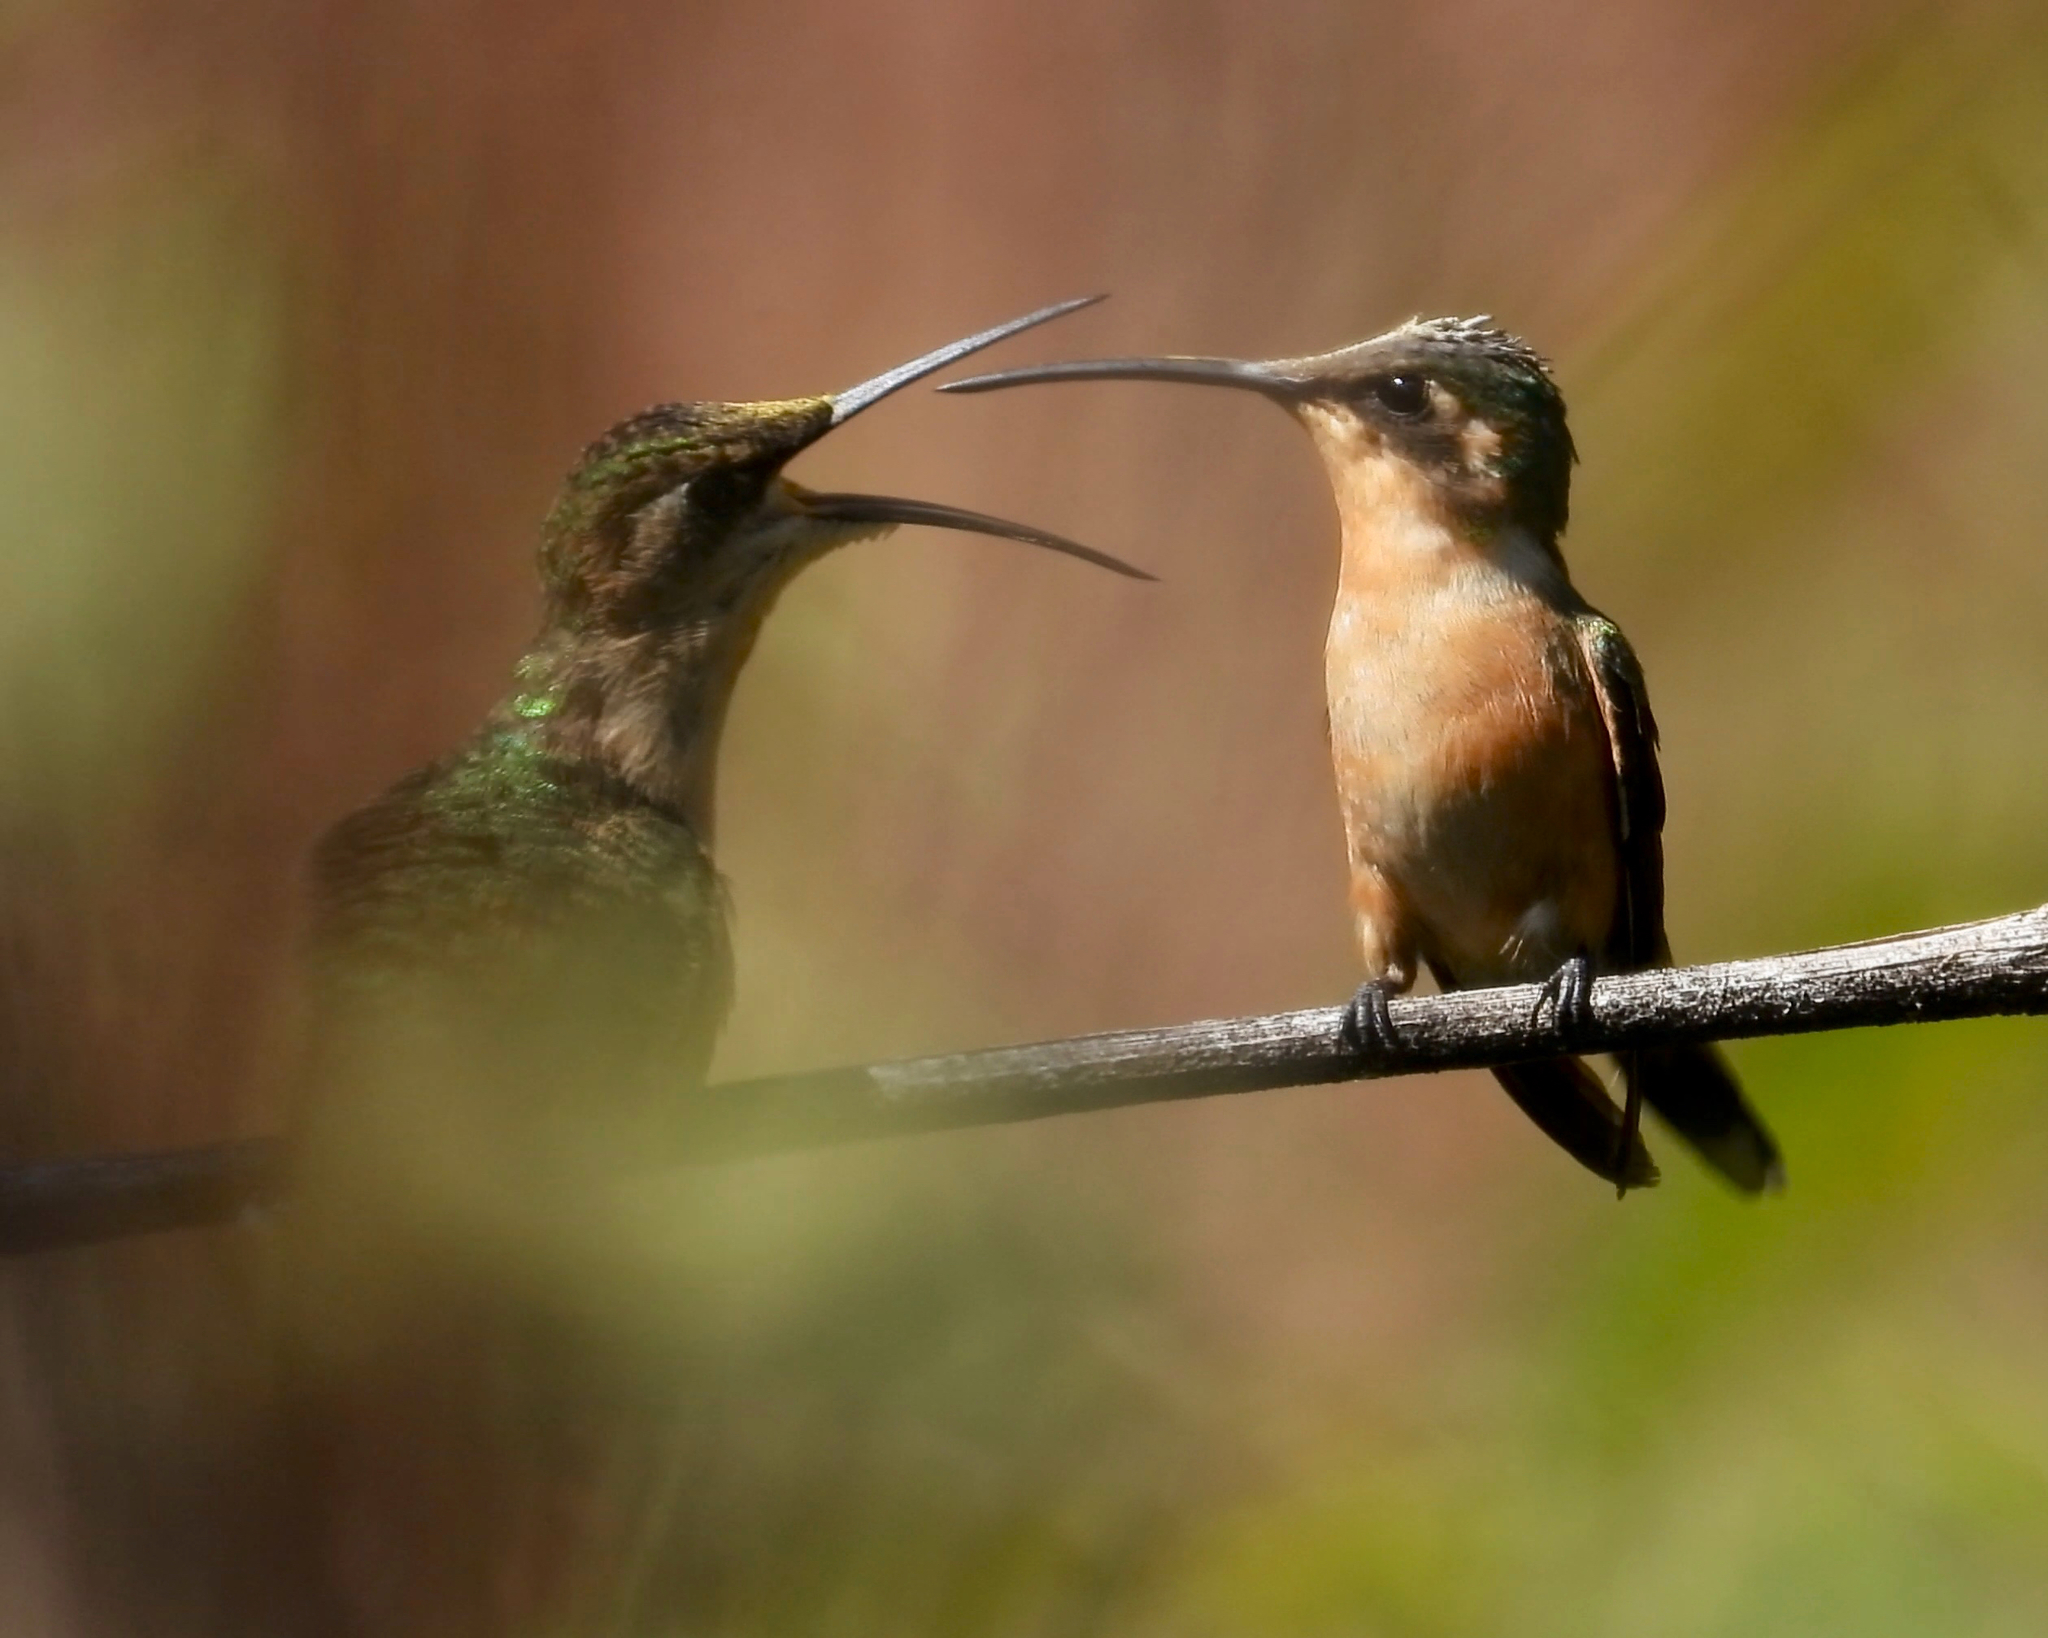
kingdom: Animalia
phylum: Chordata
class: Aves
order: Apodiformes
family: Trochilidae
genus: Doricha
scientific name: Doricha enicura
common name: Slender sheartail
